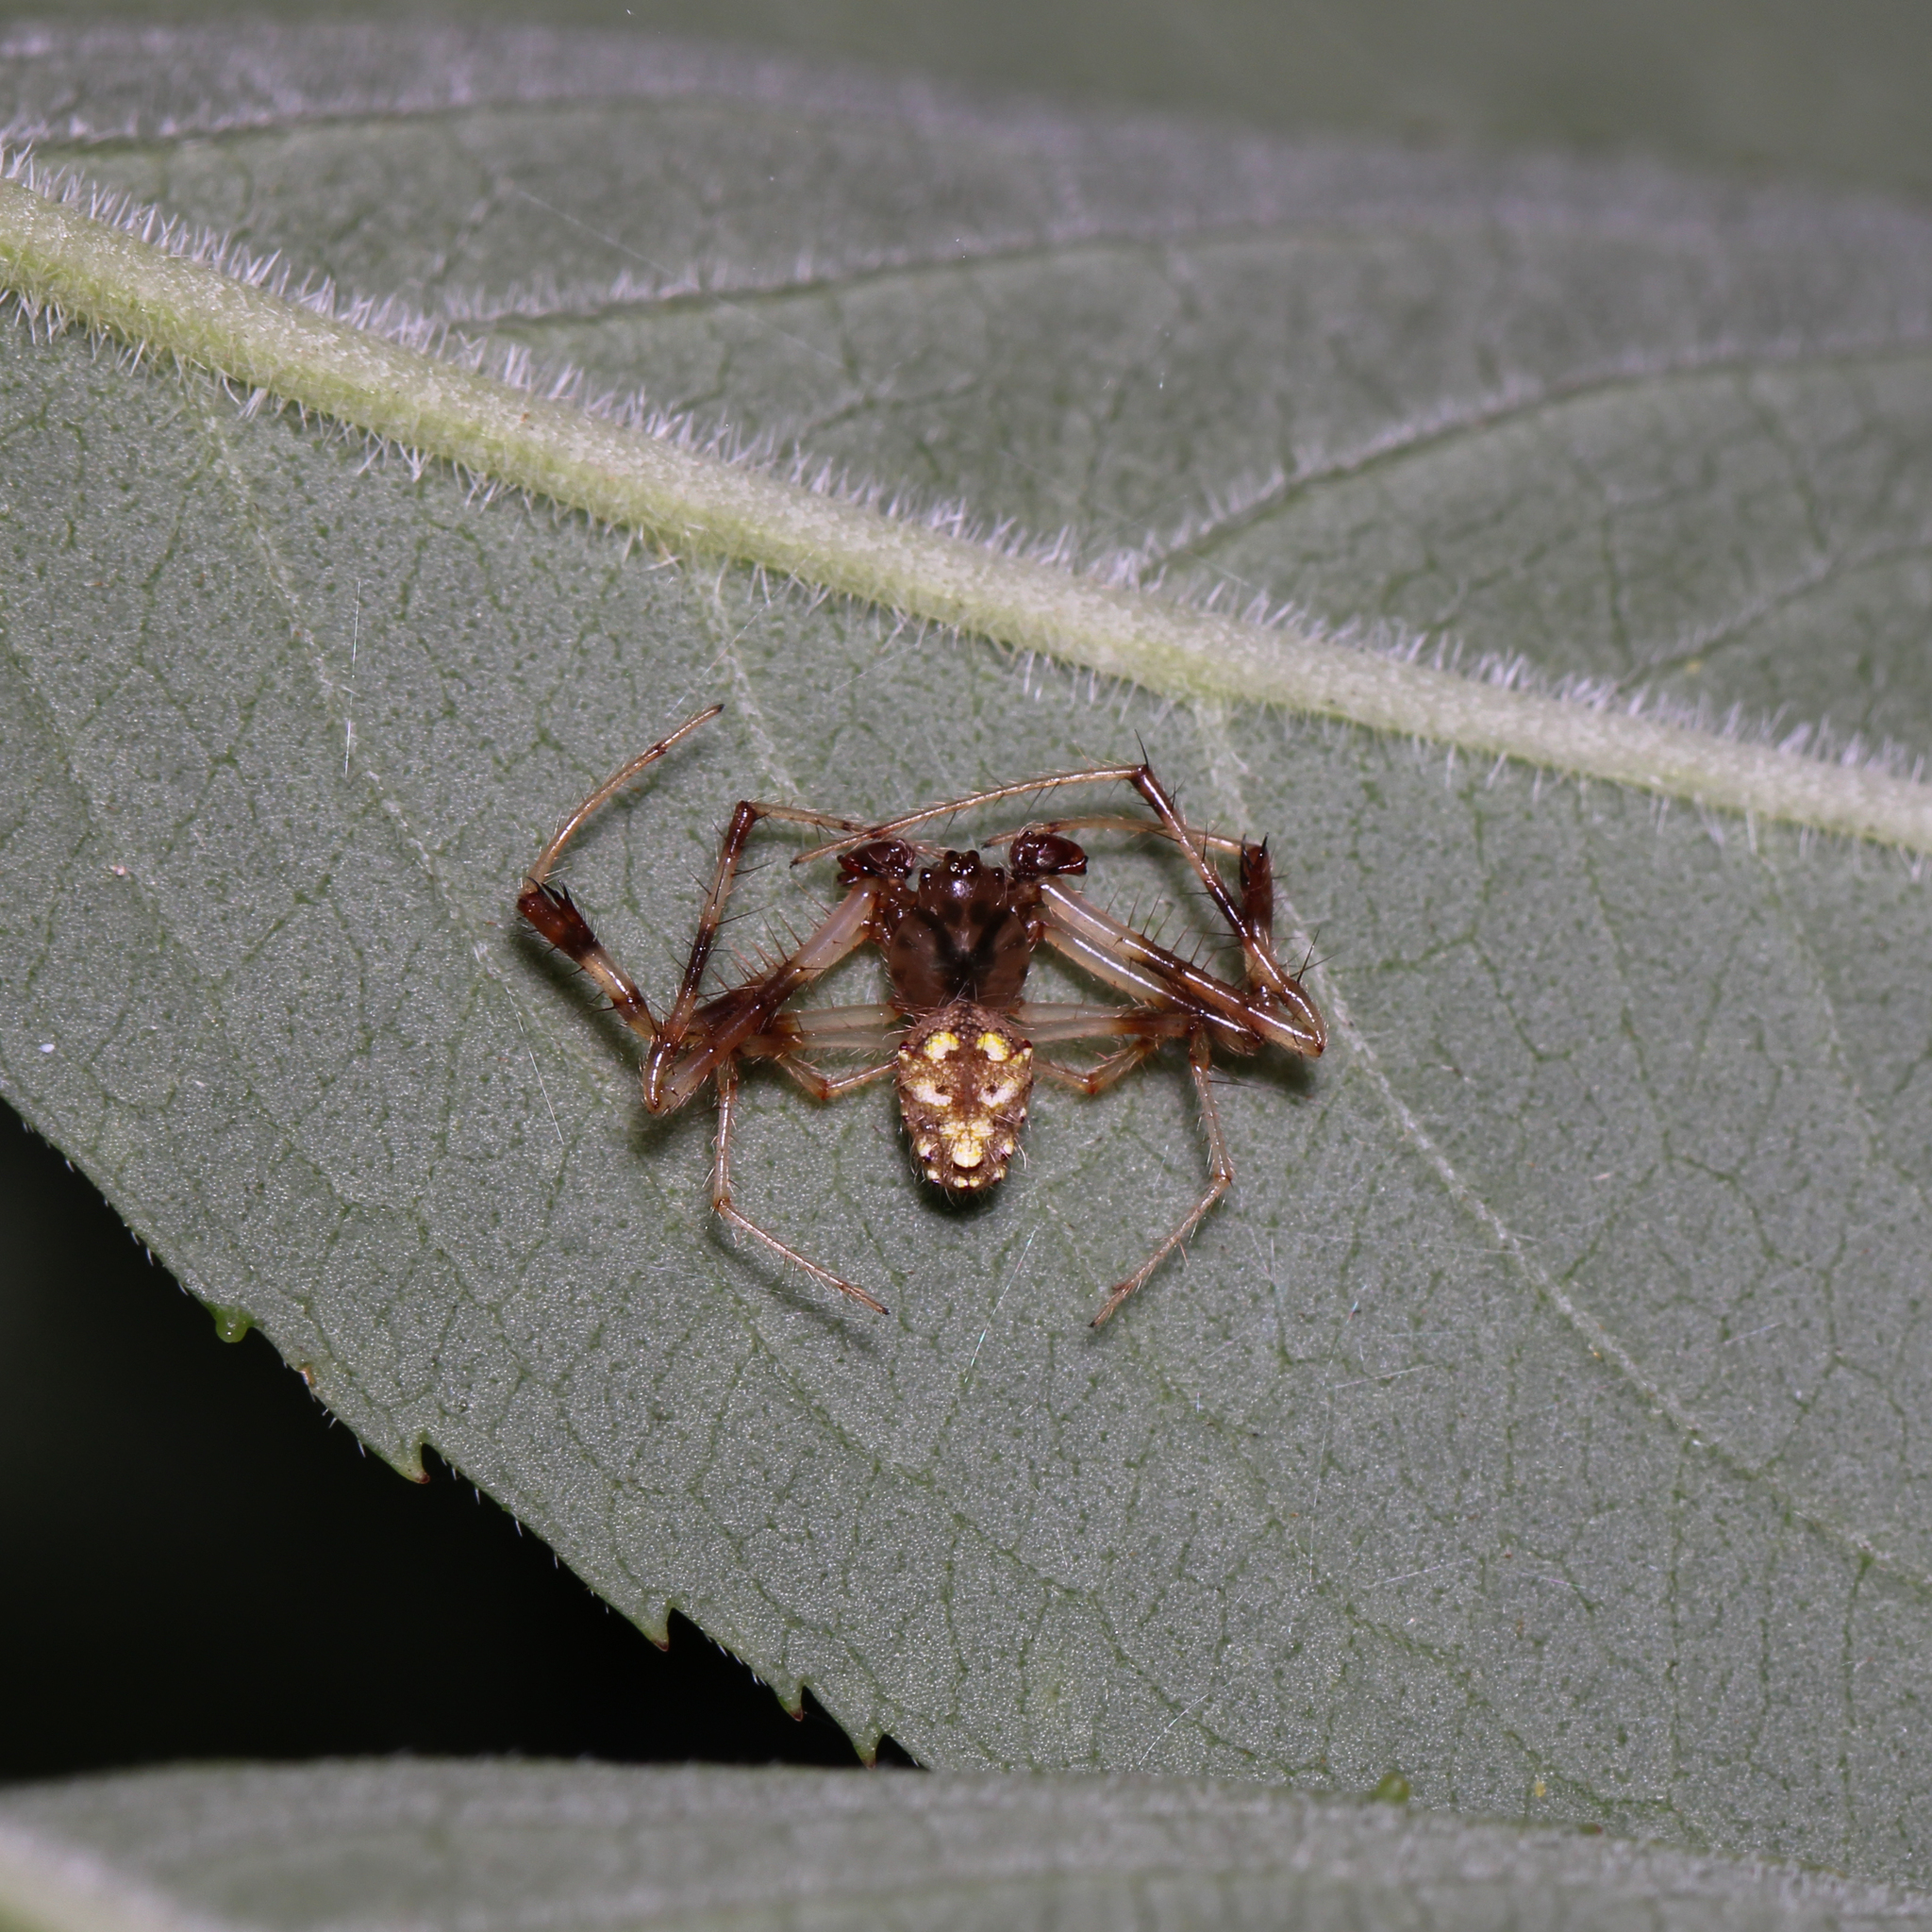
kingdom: Animalia
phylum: Arthropoda
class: Arachnida
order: Araneae
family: Araneidae
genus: Verrucosa
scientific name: Verrucosa arenata
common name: Orb weavers
